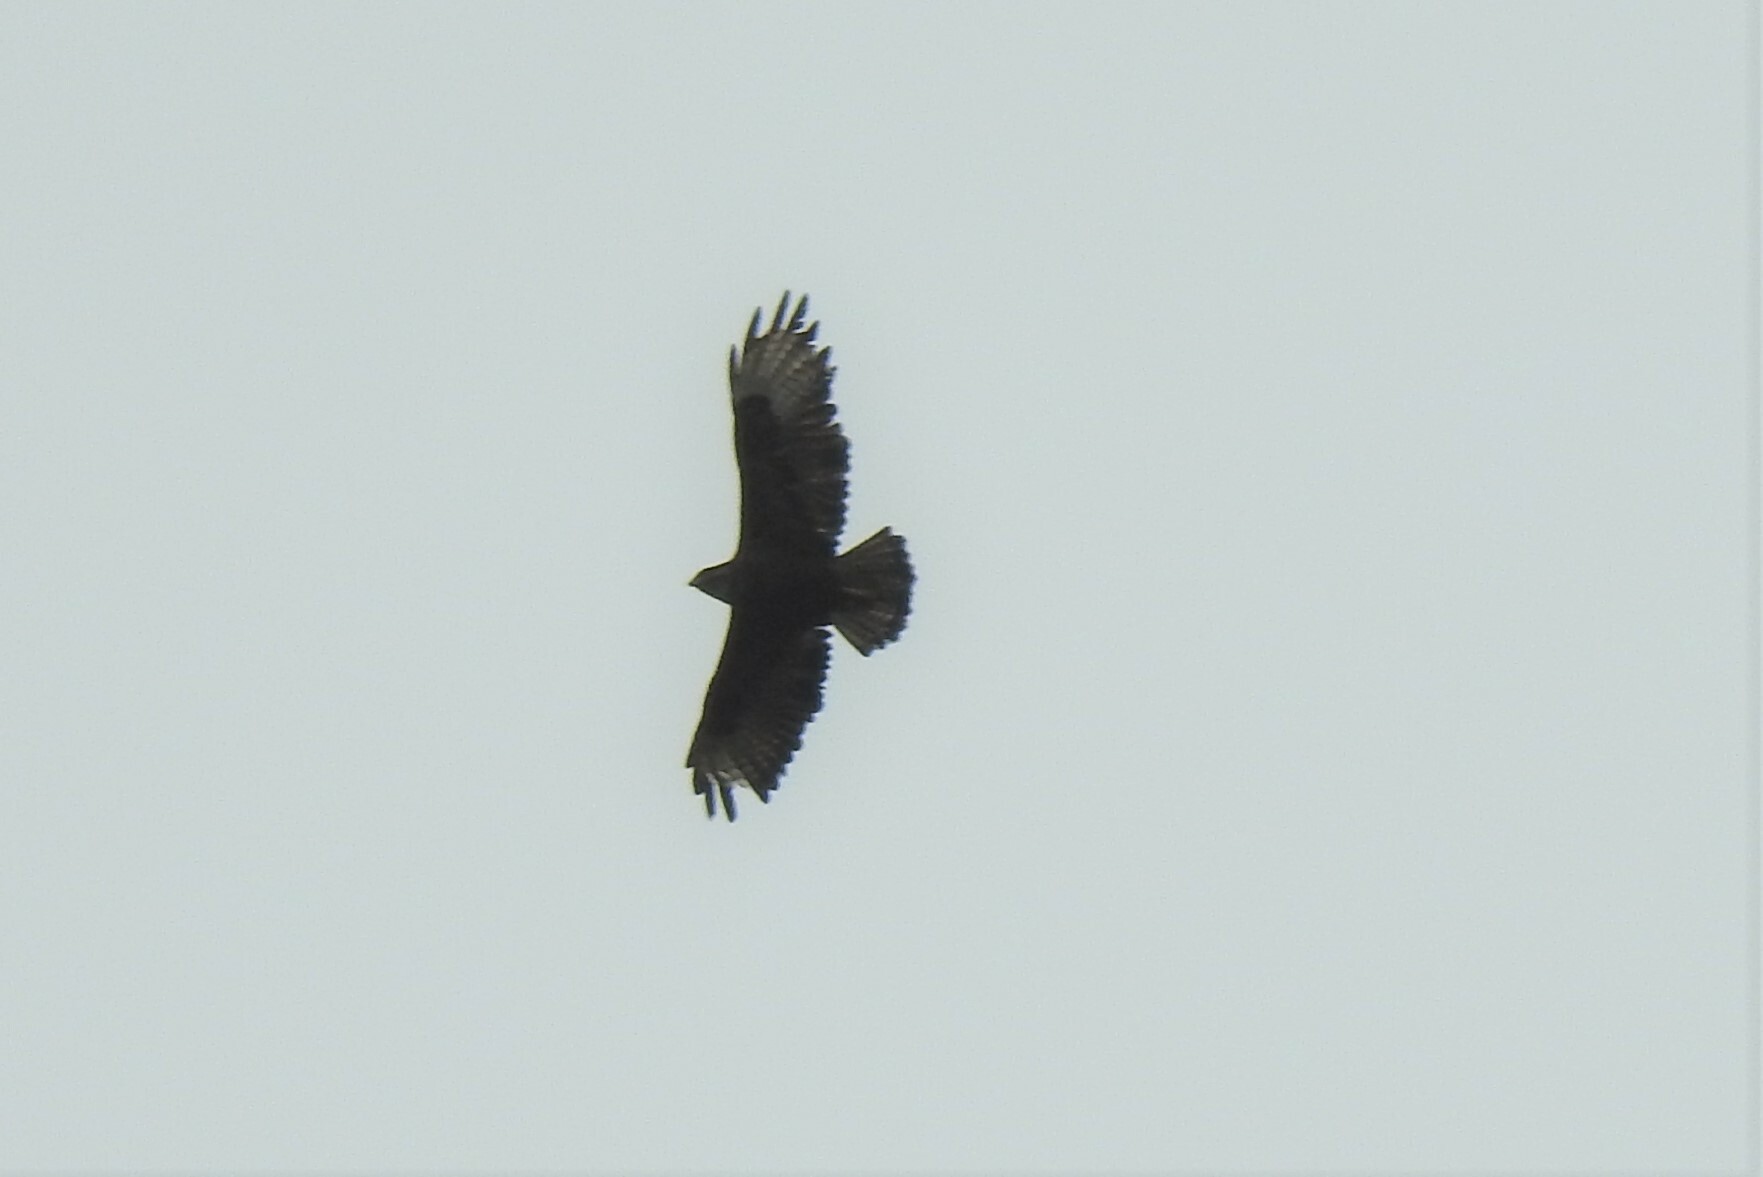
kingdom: Animalia
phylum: Chordata
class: Aves
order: Accipitriformes
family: Accipitridae
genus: Buteo
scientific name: Buteo buteo
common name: Common buzzard
